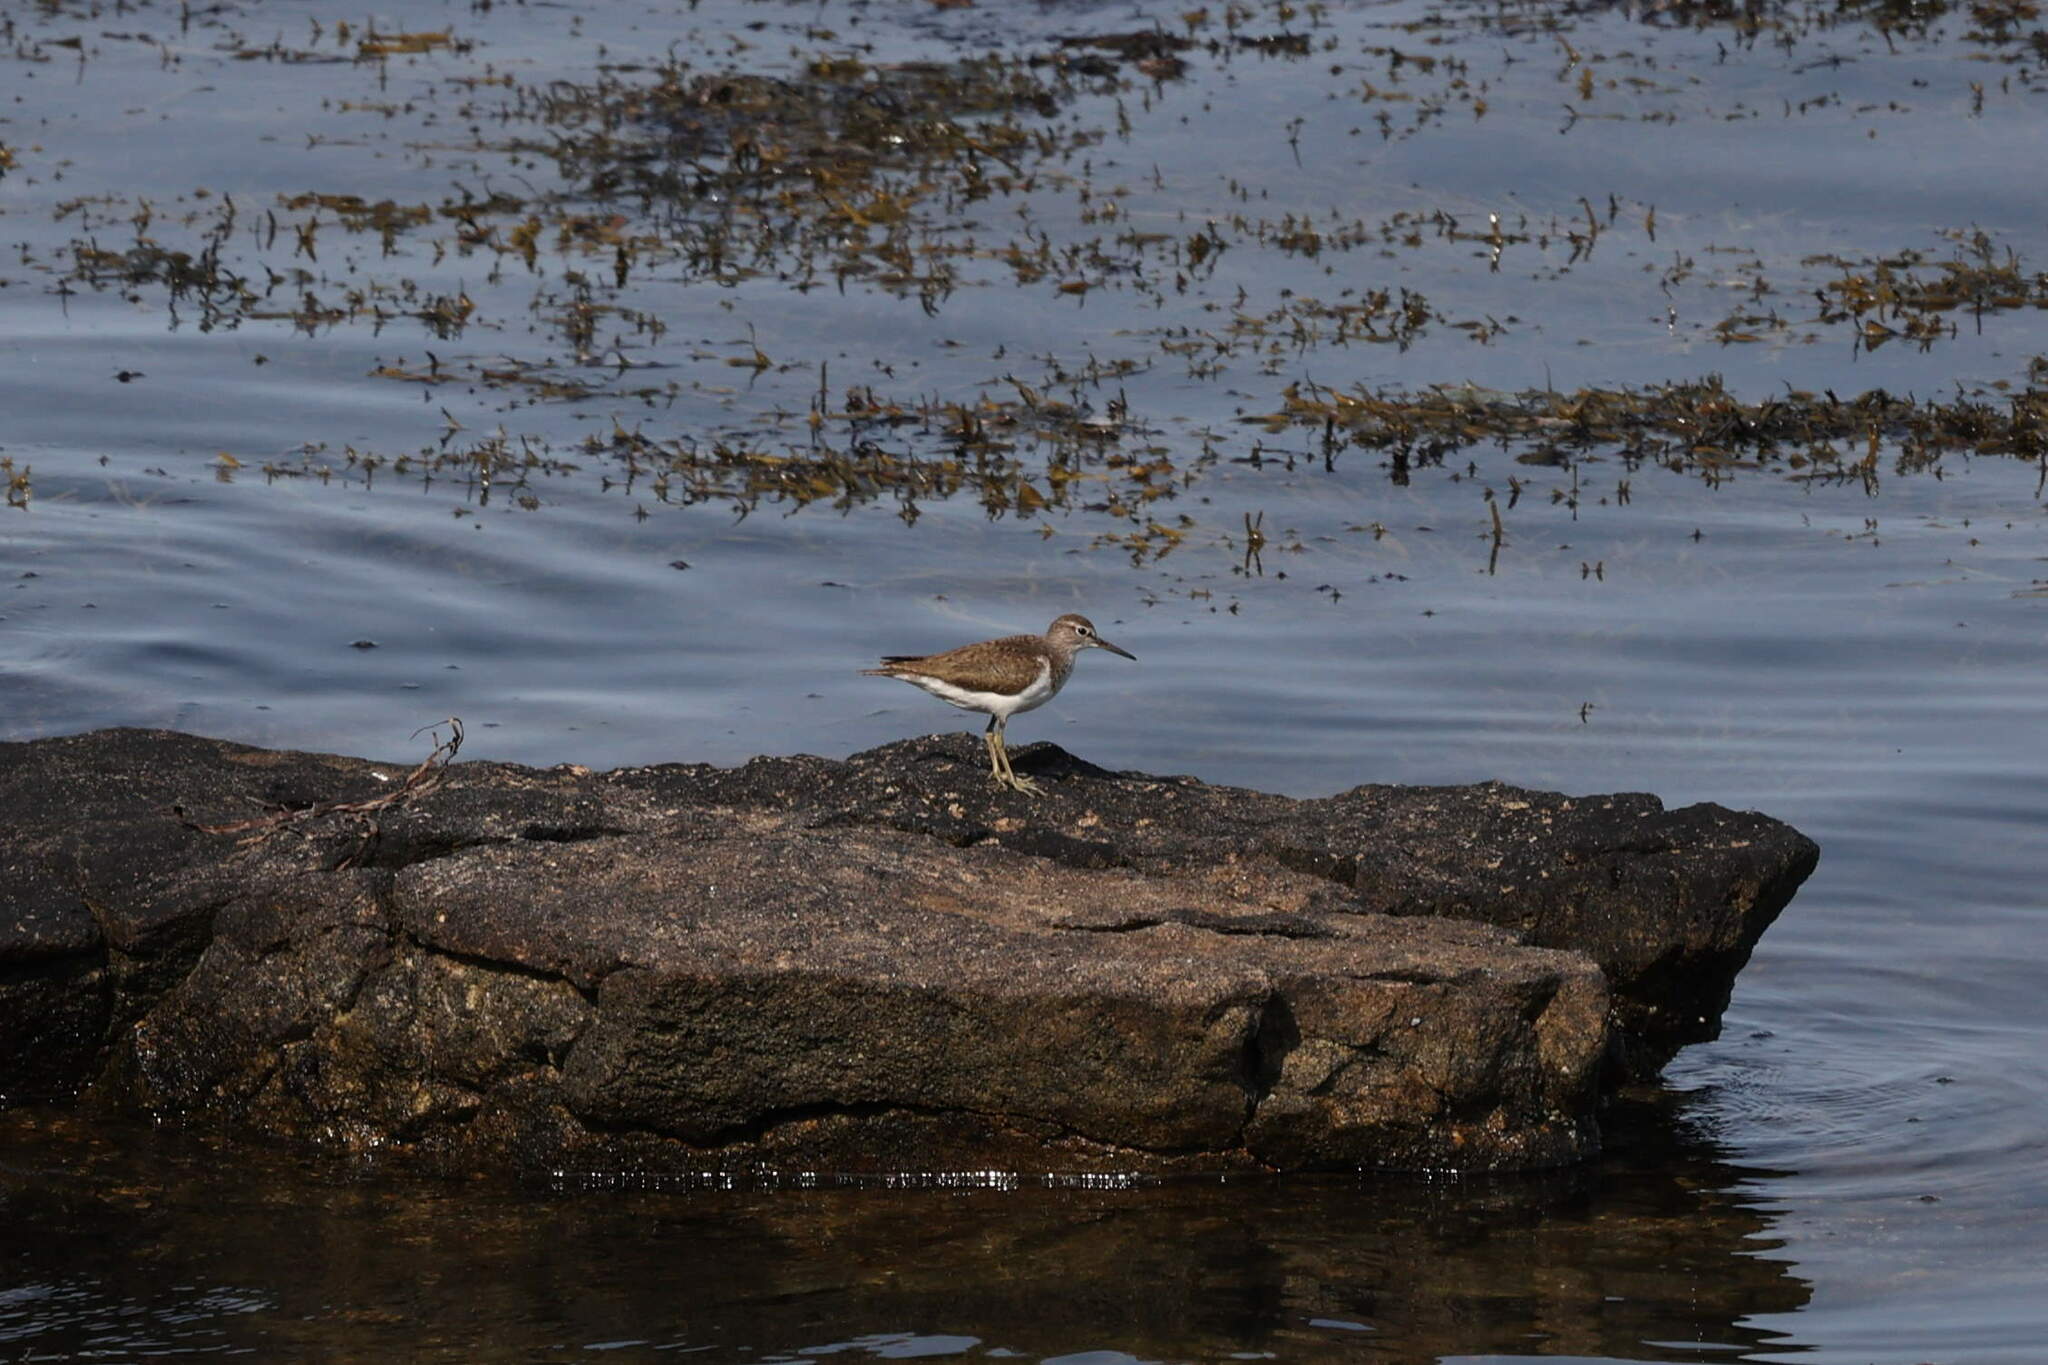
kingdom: Animalia
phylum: Chordata
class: Aves
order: Charadriiformes
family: Scolopacidae
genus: Actitis
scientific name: Actitis hypoleucos
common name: Common sandpiper
